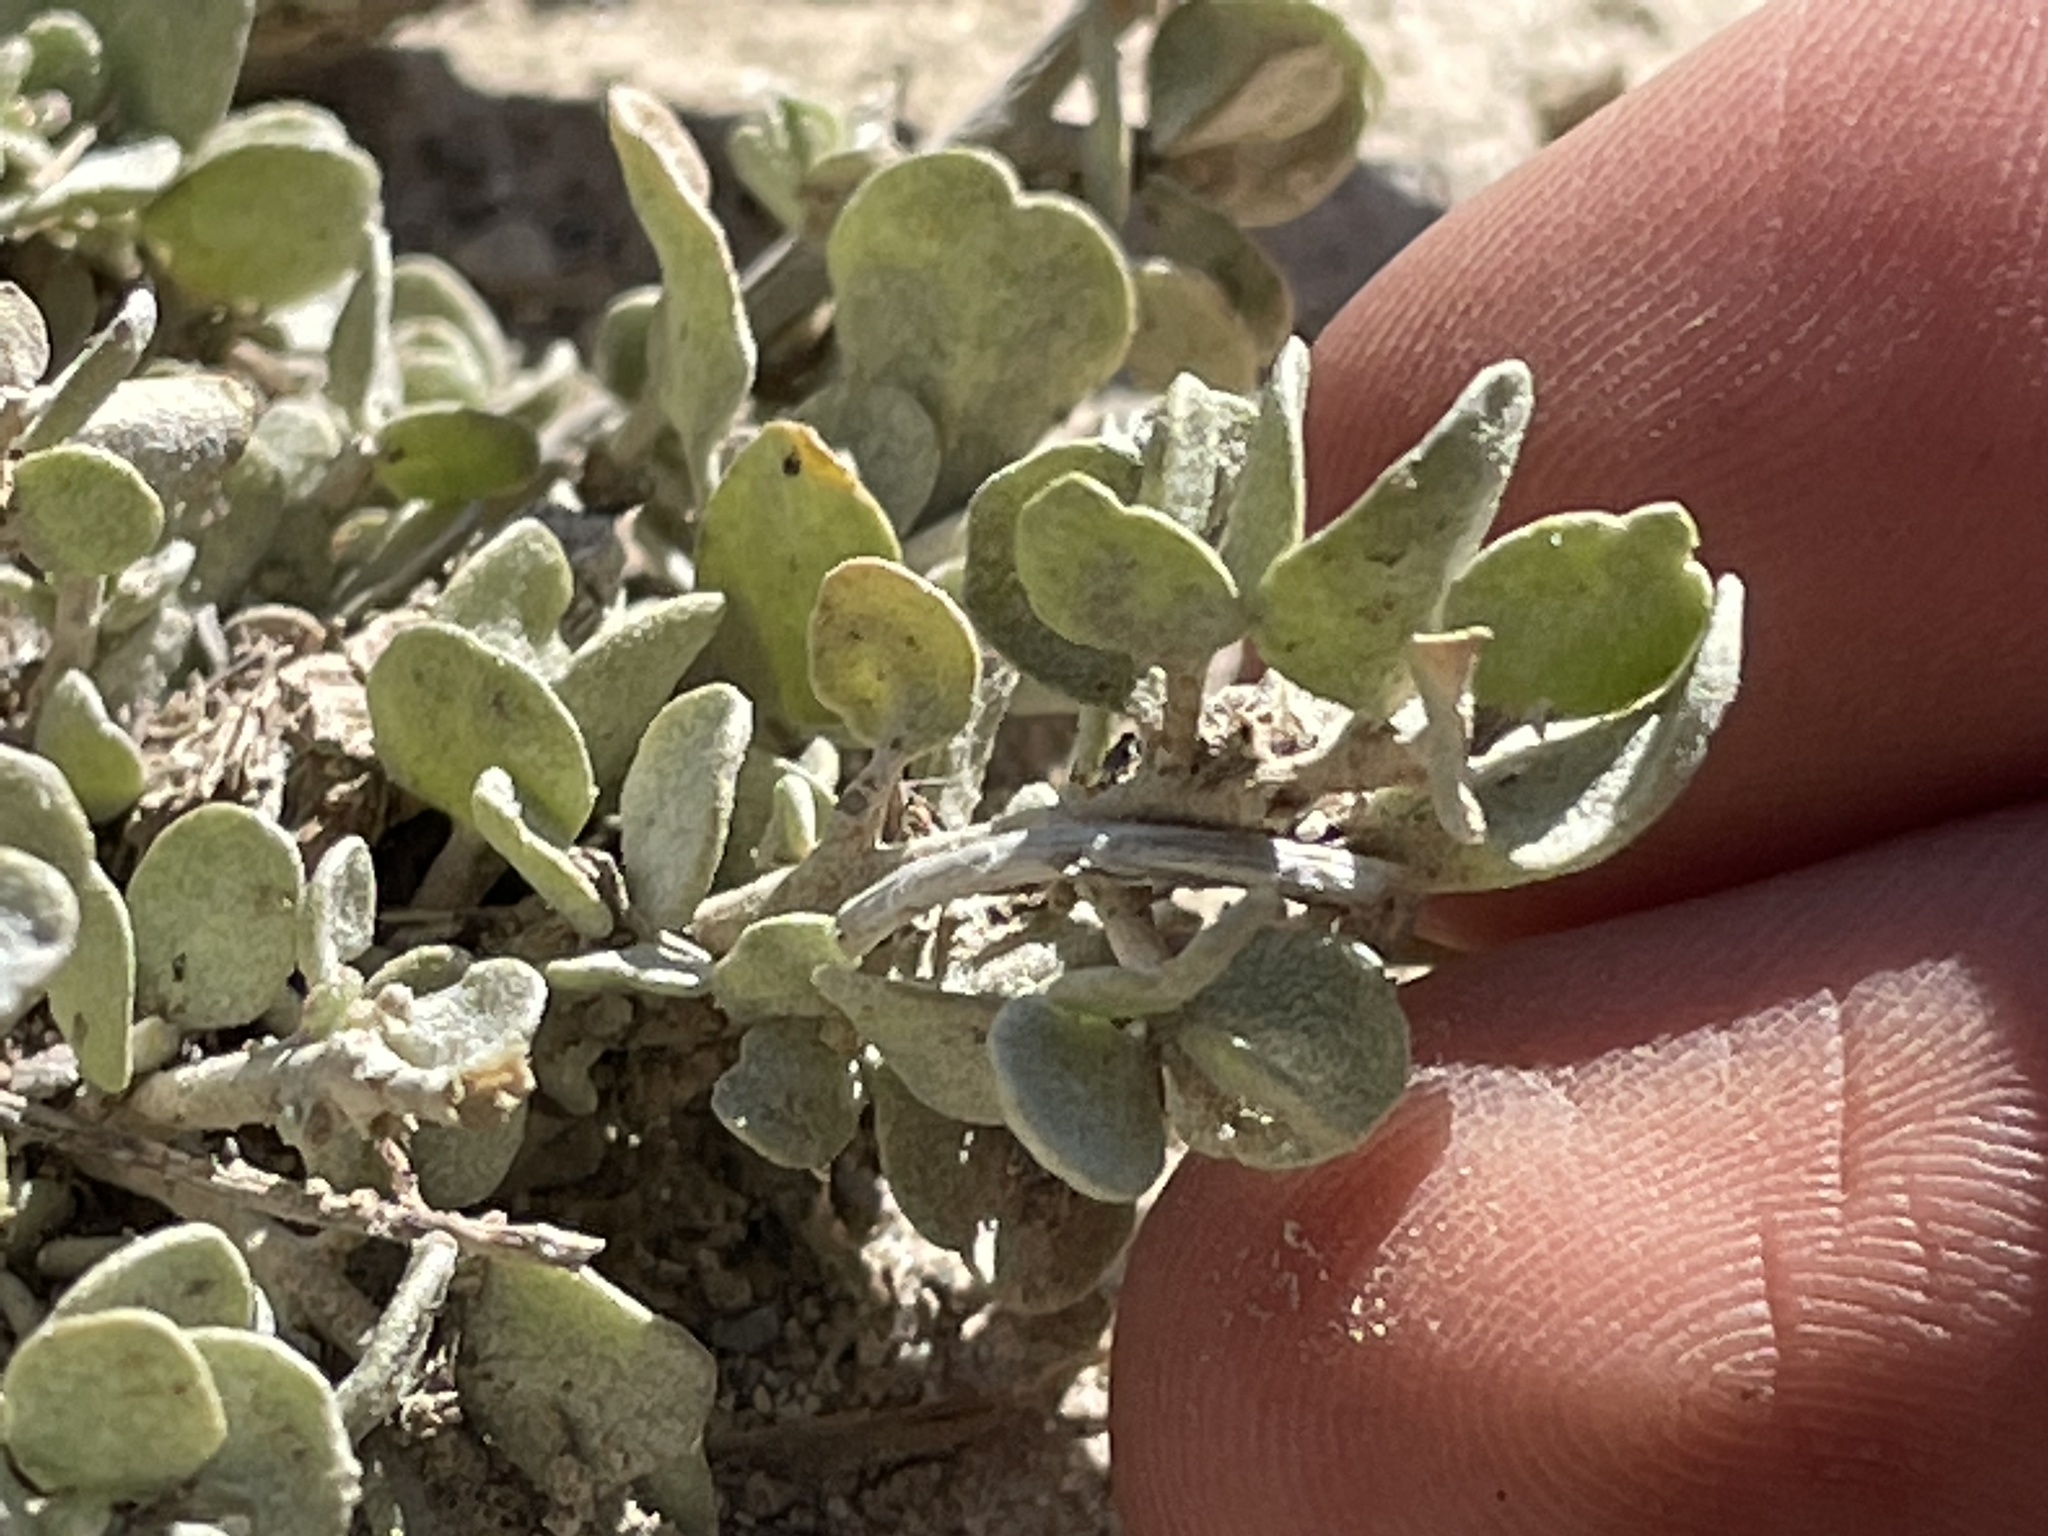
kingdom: Plantae
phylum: Tracheophyta
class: Magnoliopsida
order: Caryophyllales
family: Amaranthaceae
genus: Atriplex
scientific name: Atriplex confertifolia
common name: Shadscale
